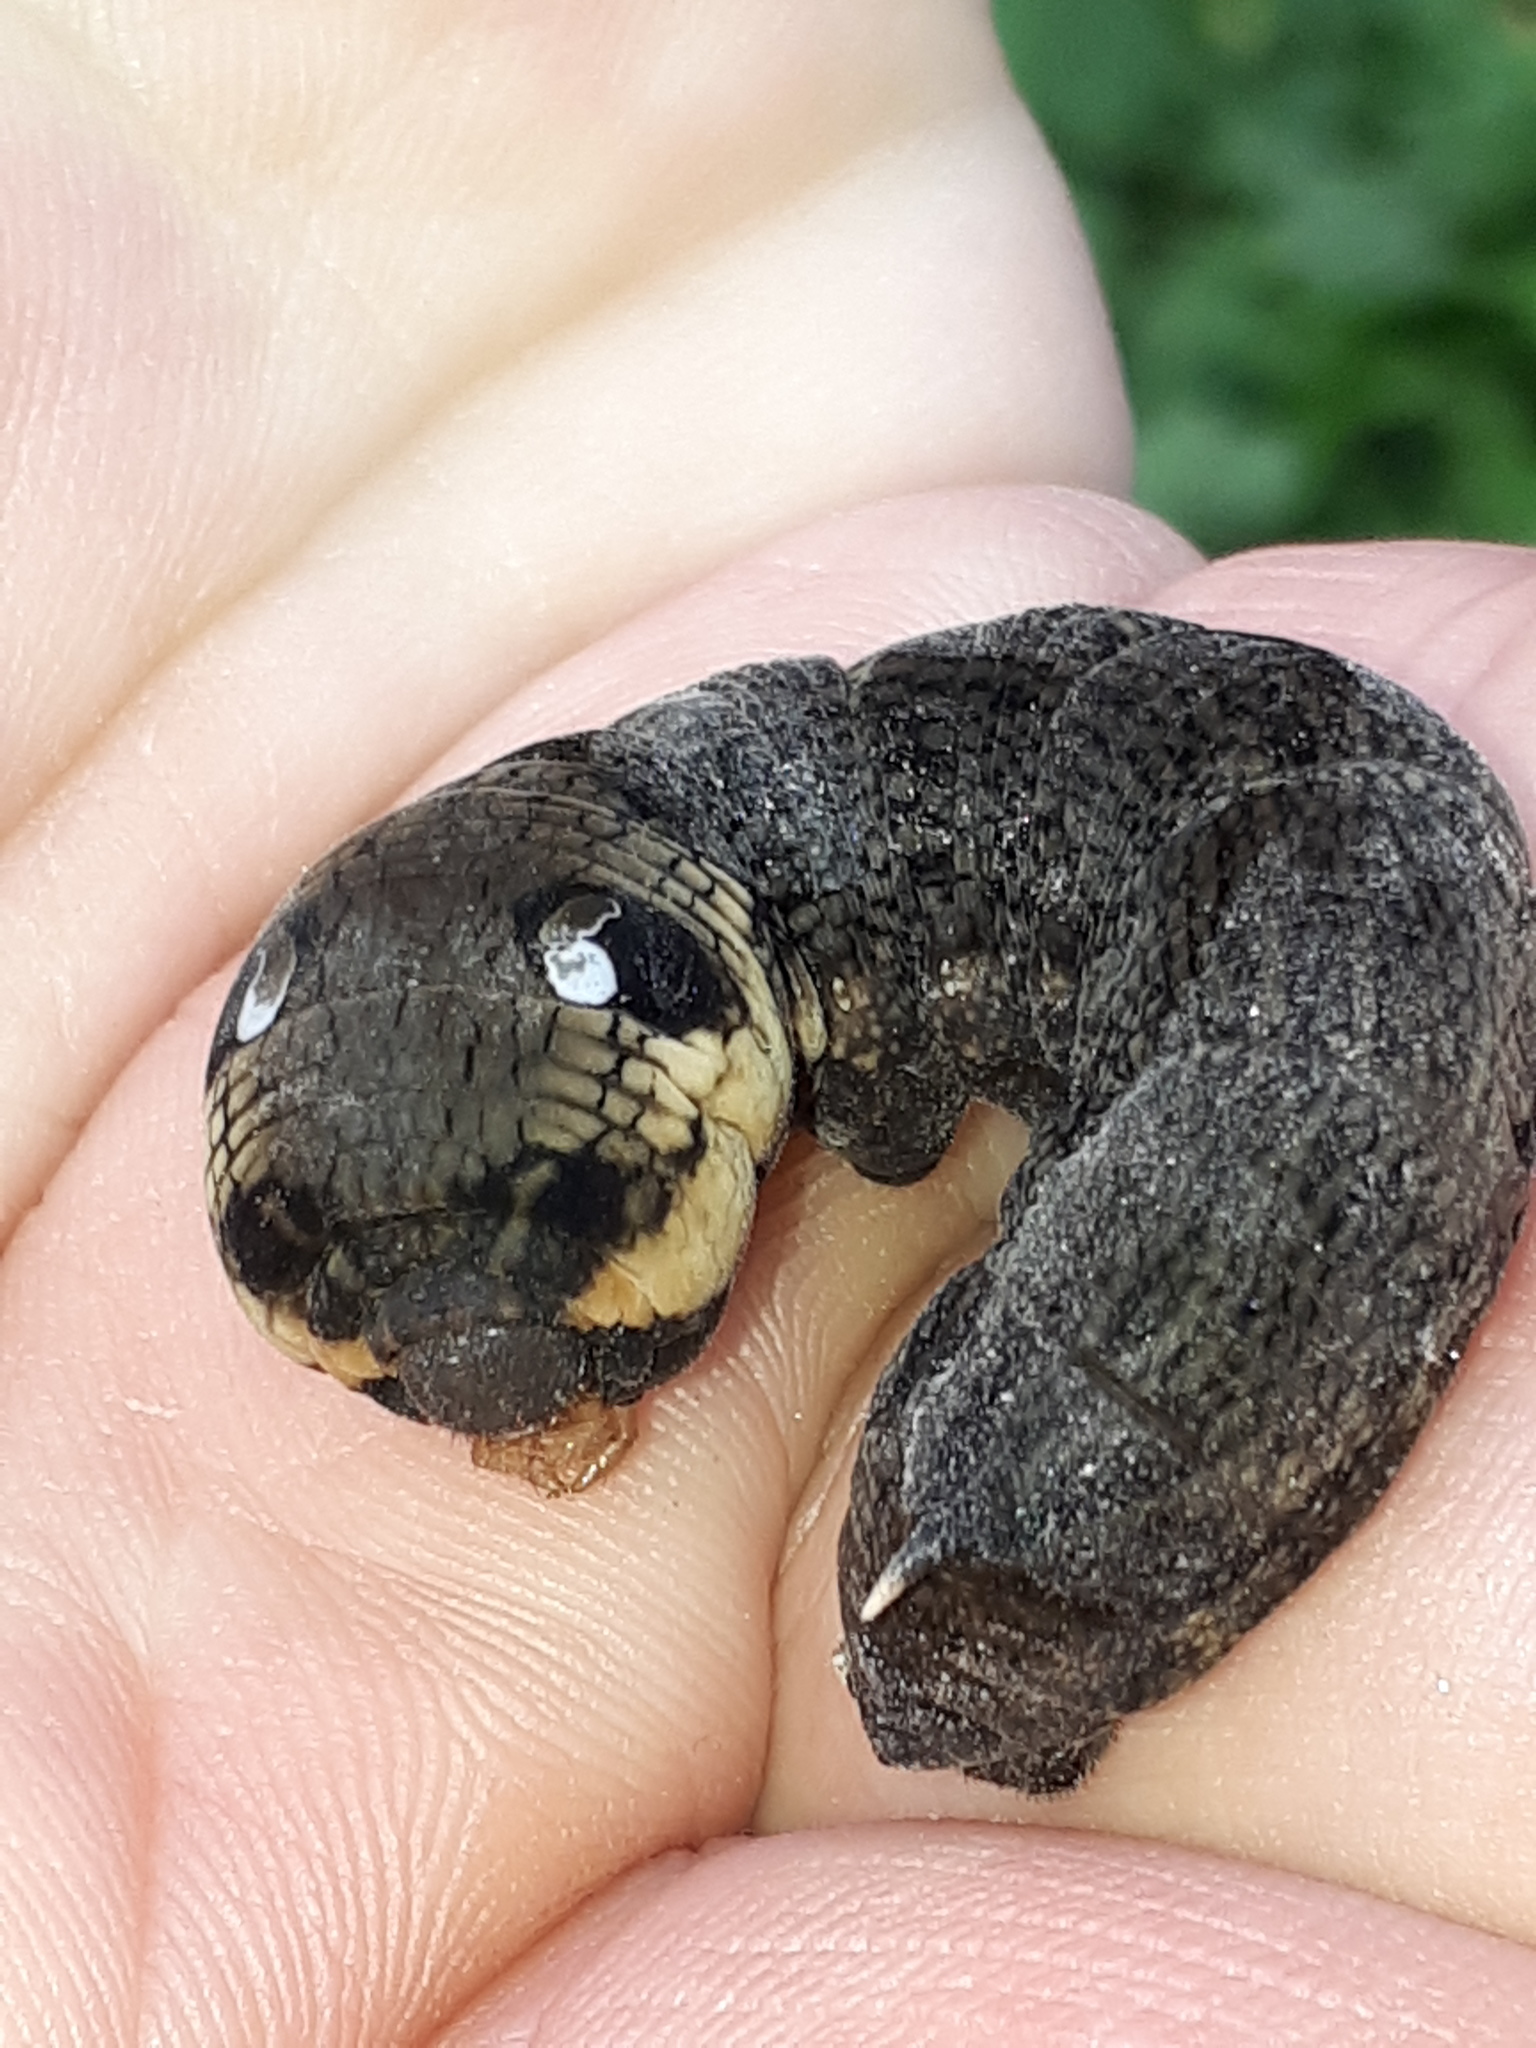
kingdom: Animalia
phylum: Arthropoda
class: Insecta
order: Lepidoptera
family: Sphingidae
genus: Deilephila
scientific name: Deilephila elpenor
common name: Elephant hawk-moth
